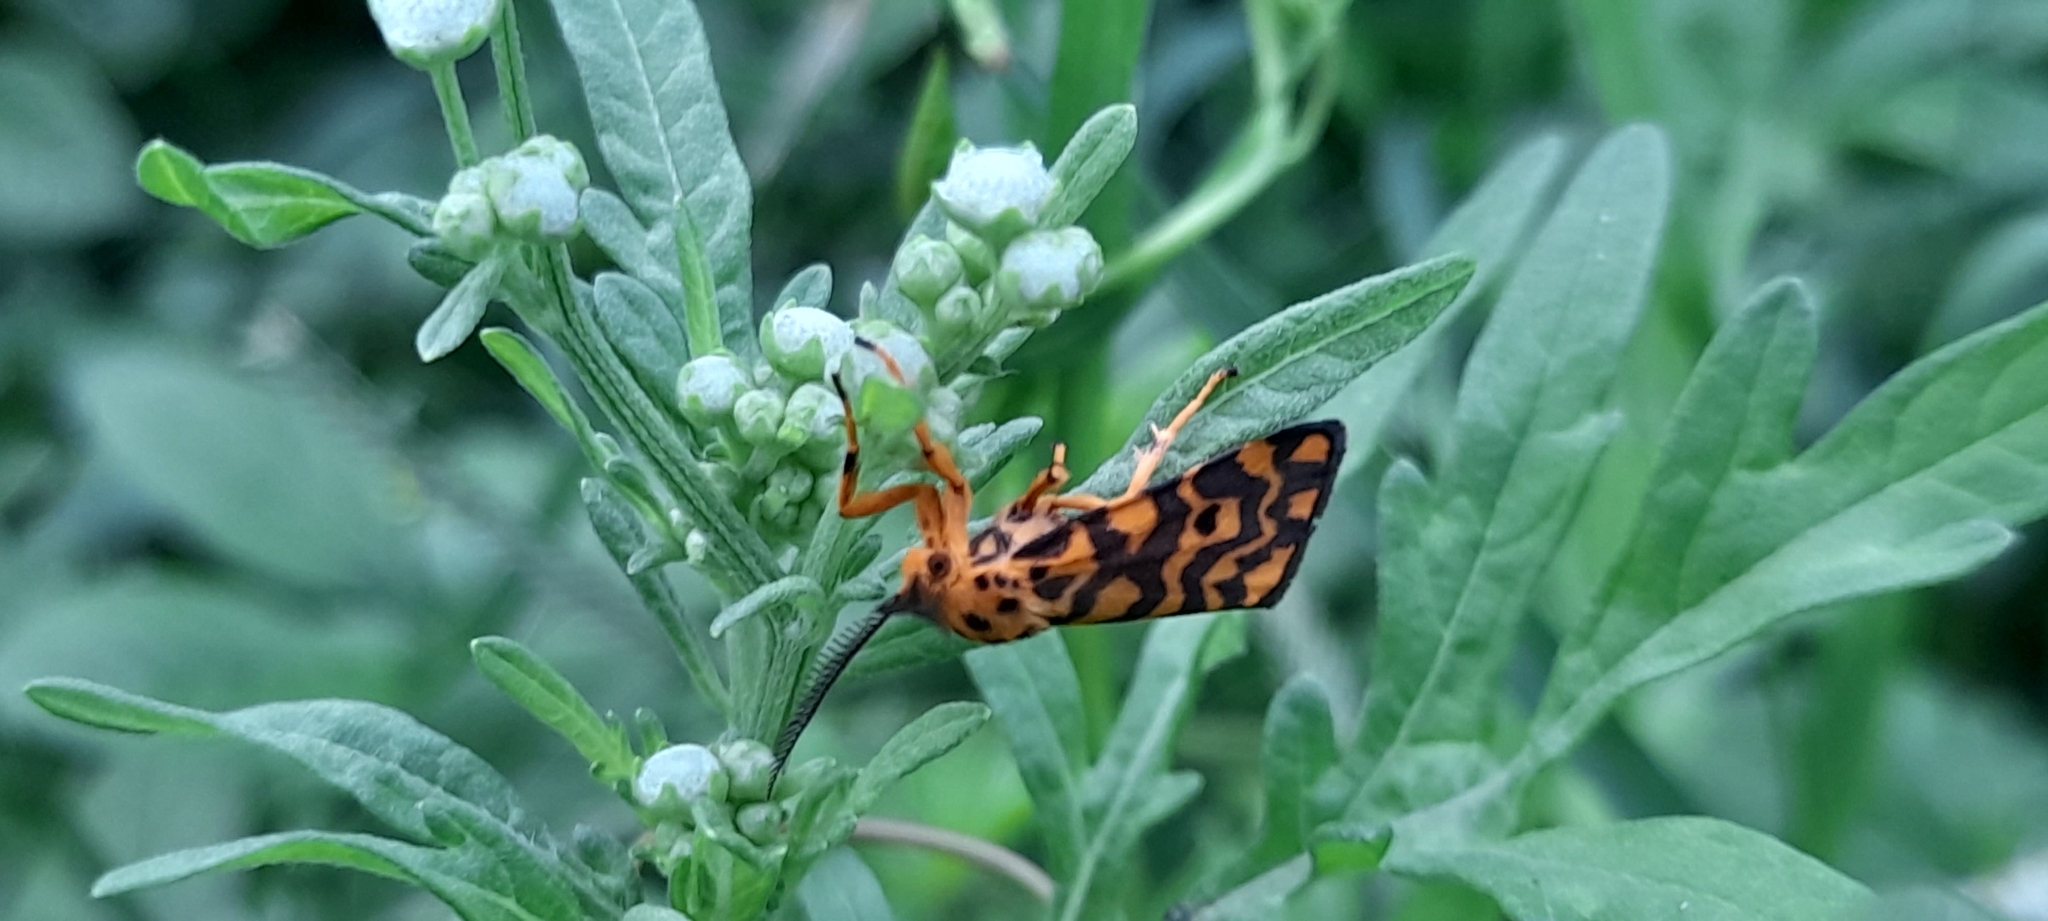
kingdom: Animalia
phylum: Arthropoda
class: Insecta
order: Lepidoptera
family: Erebidae
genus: Nepita
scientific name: Nepita conferta
